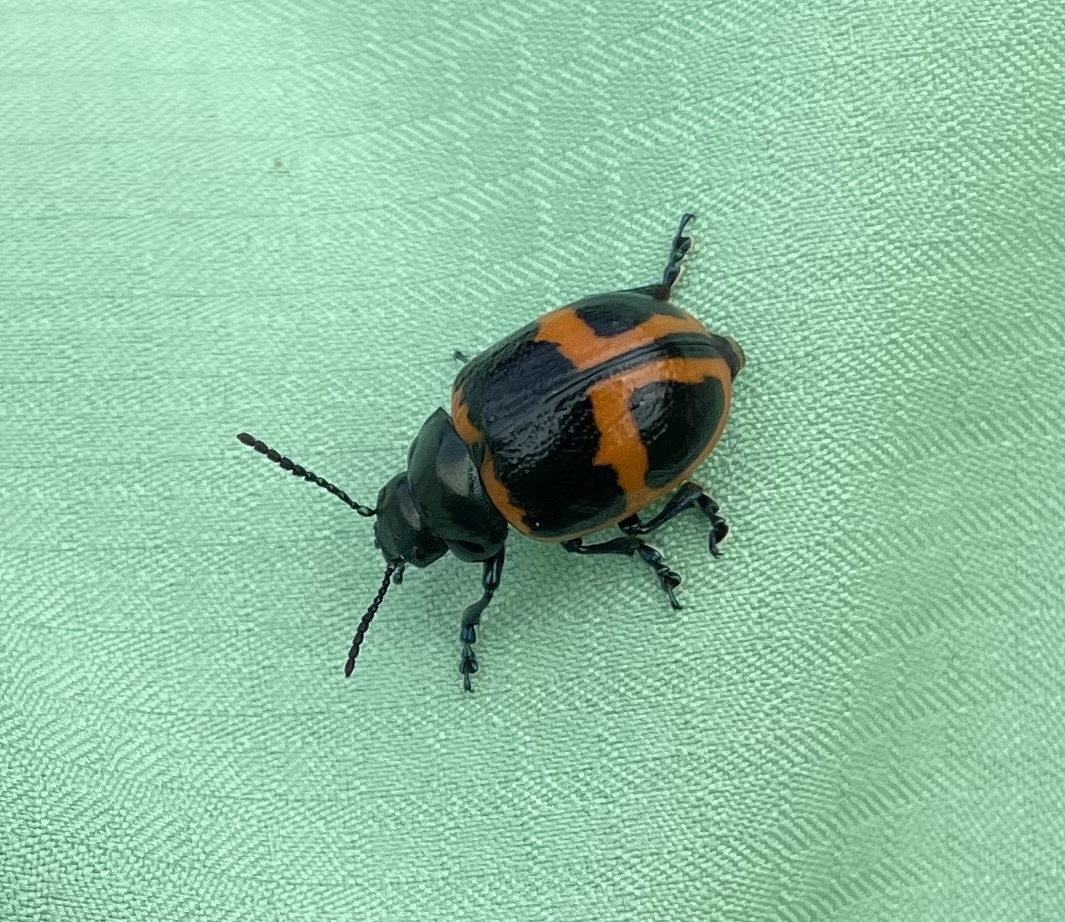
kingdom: Animalia
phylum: Arthropoda
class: Insecta
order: Coleoptera
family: Chrysomelidae
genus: Labidomera
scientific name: Labidomera clivicollis
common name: Swamp milkweed leaf beetle
